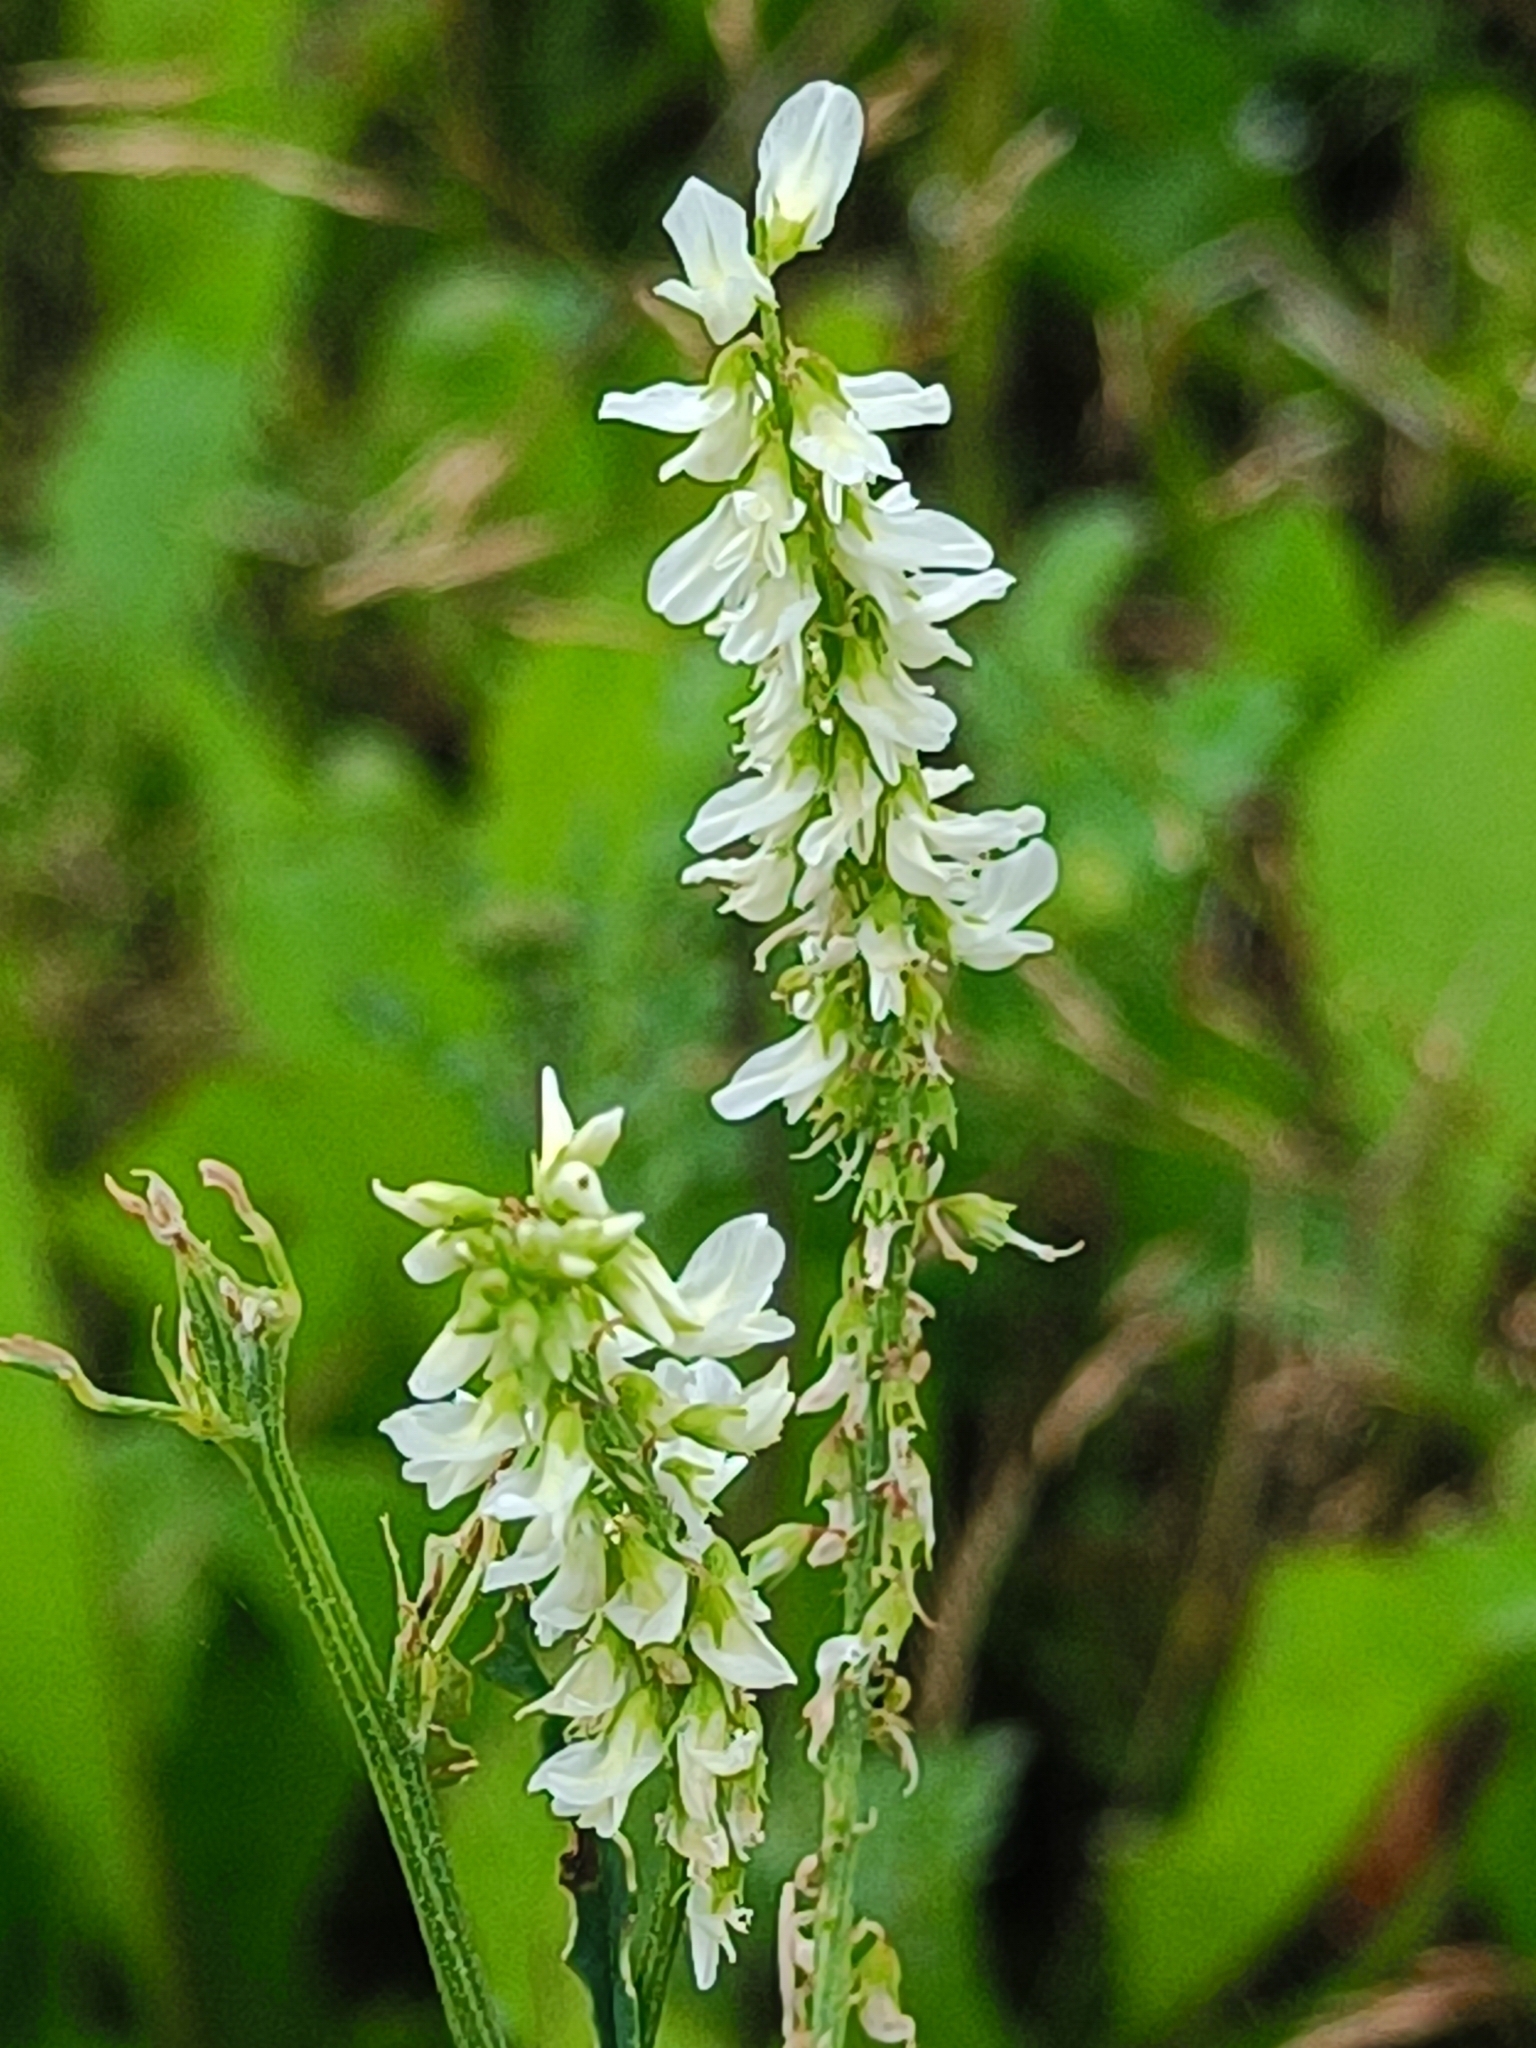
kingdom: Plantae
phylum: Tracheophyta
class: Magnoliopsida
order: Fabales
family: Fabaceae
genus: Melilotus
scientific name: Melilotus albus
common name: White melilot
